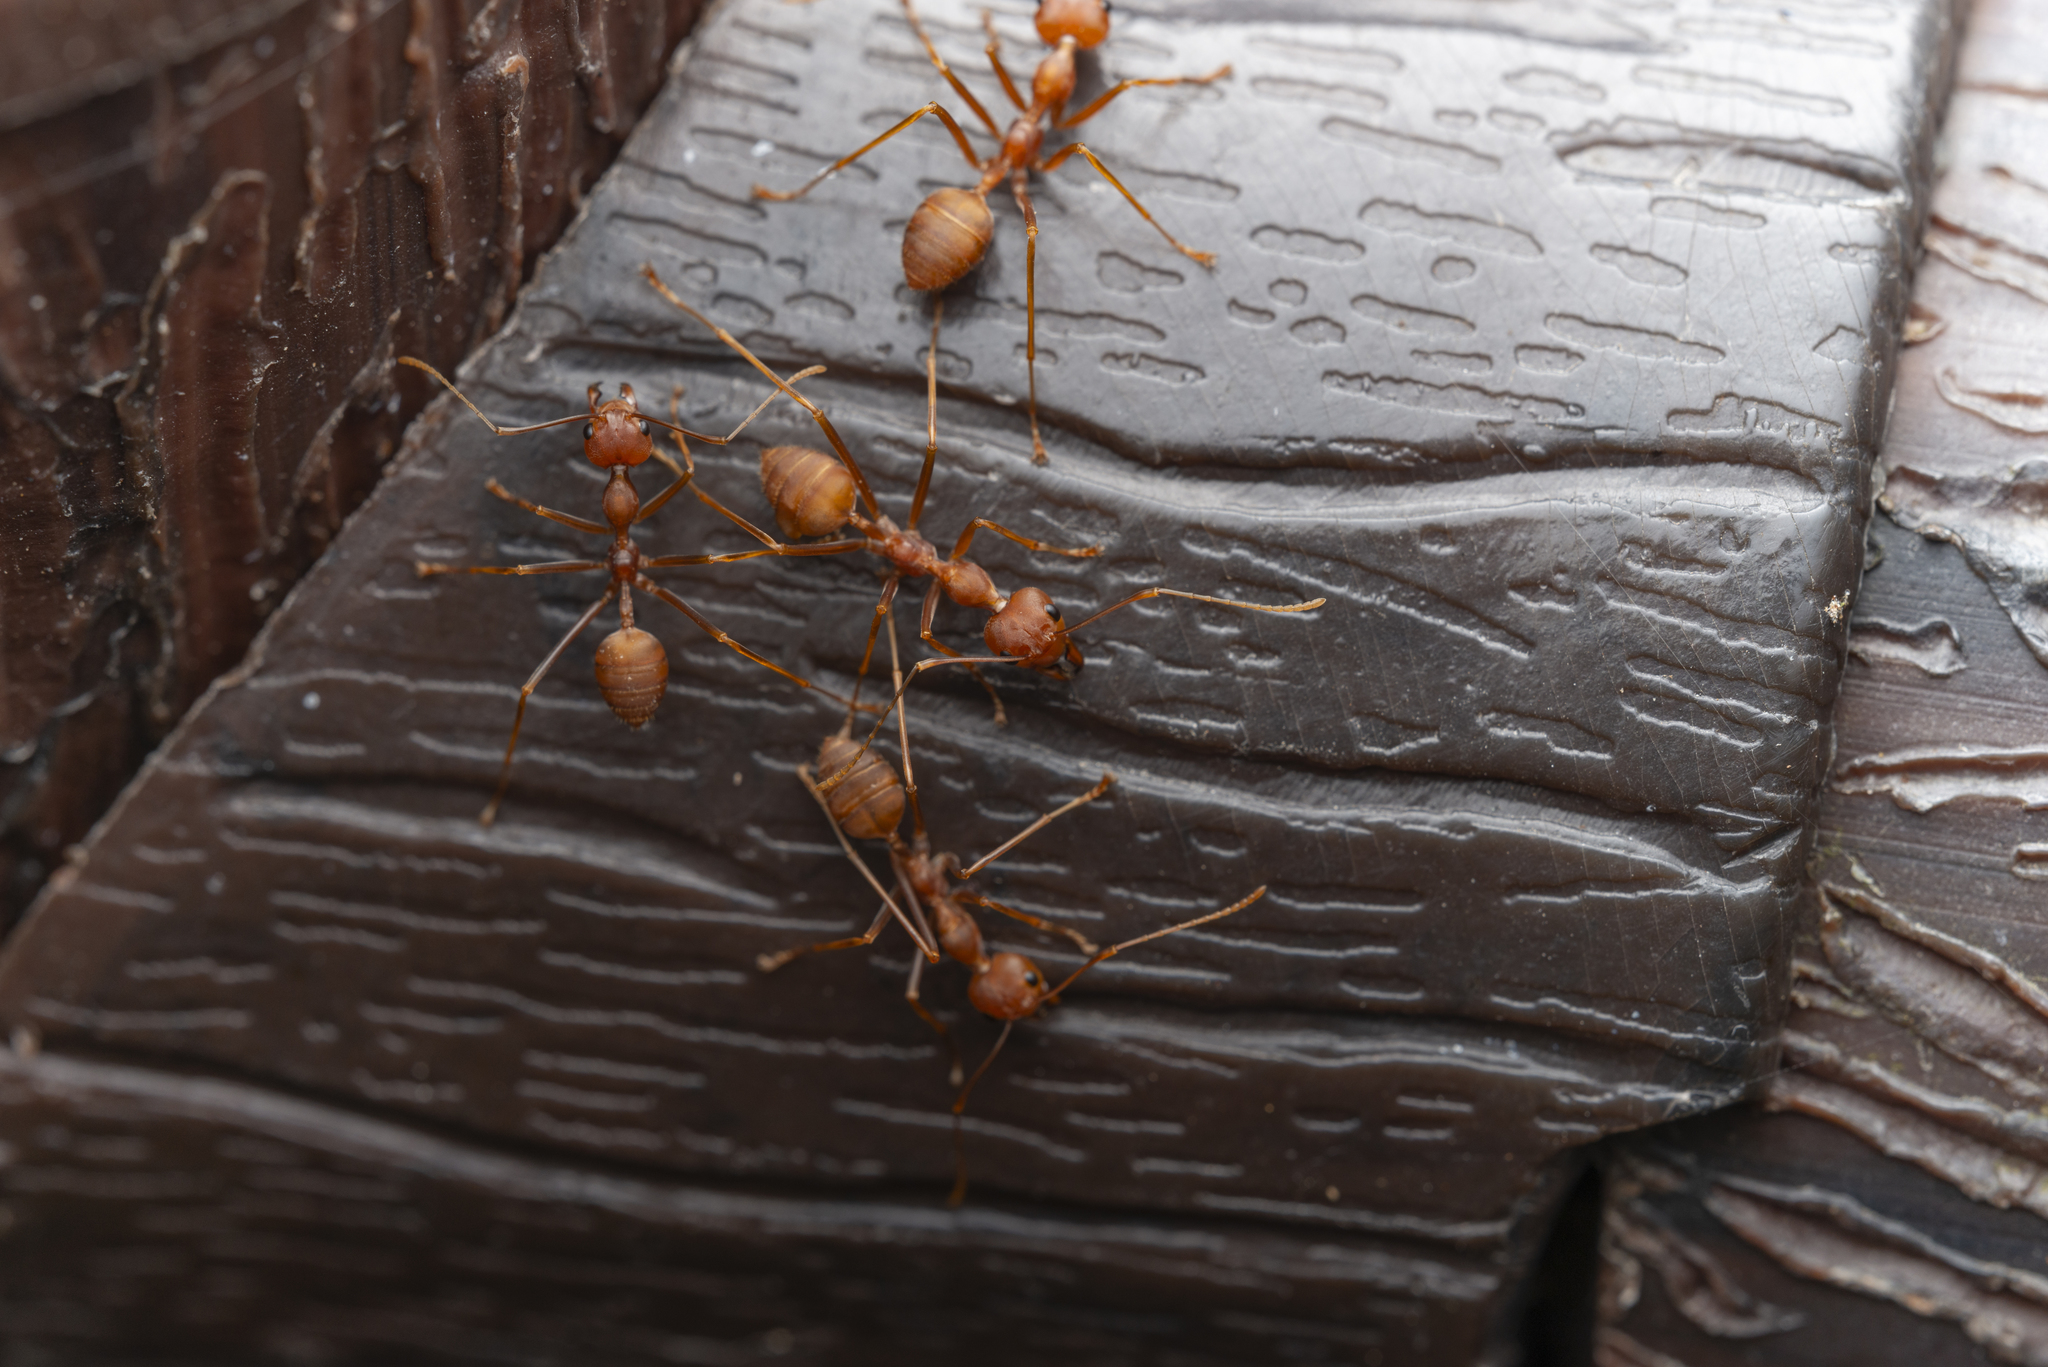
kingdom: Animalia
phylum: Arthropoda
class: Insecta
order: Hymenoptera
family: Formicidae
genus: Oecophylla
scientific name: Oecophylla smaragdina
